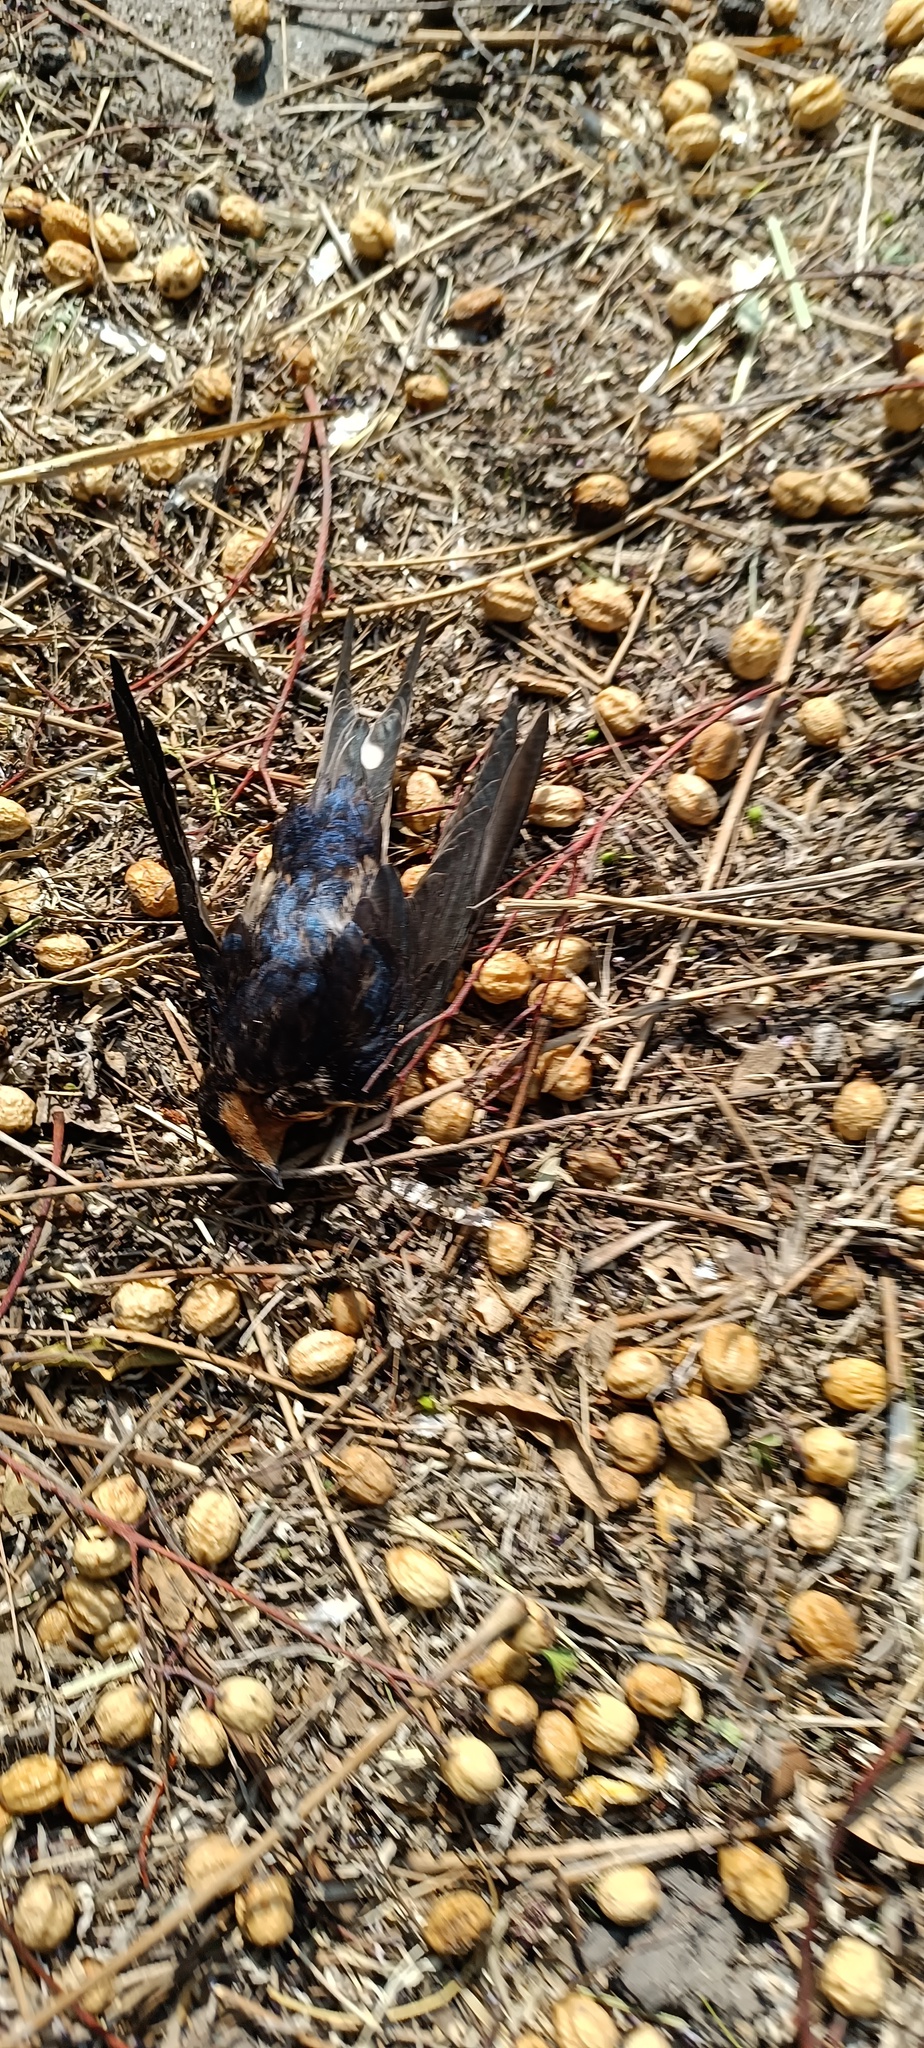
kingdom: Animalia
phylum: Chordata
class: Aves
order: Passeriformes
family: Hirundinidae
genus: Hirundo
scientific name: Hirundo rustica
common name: Barn swallow
